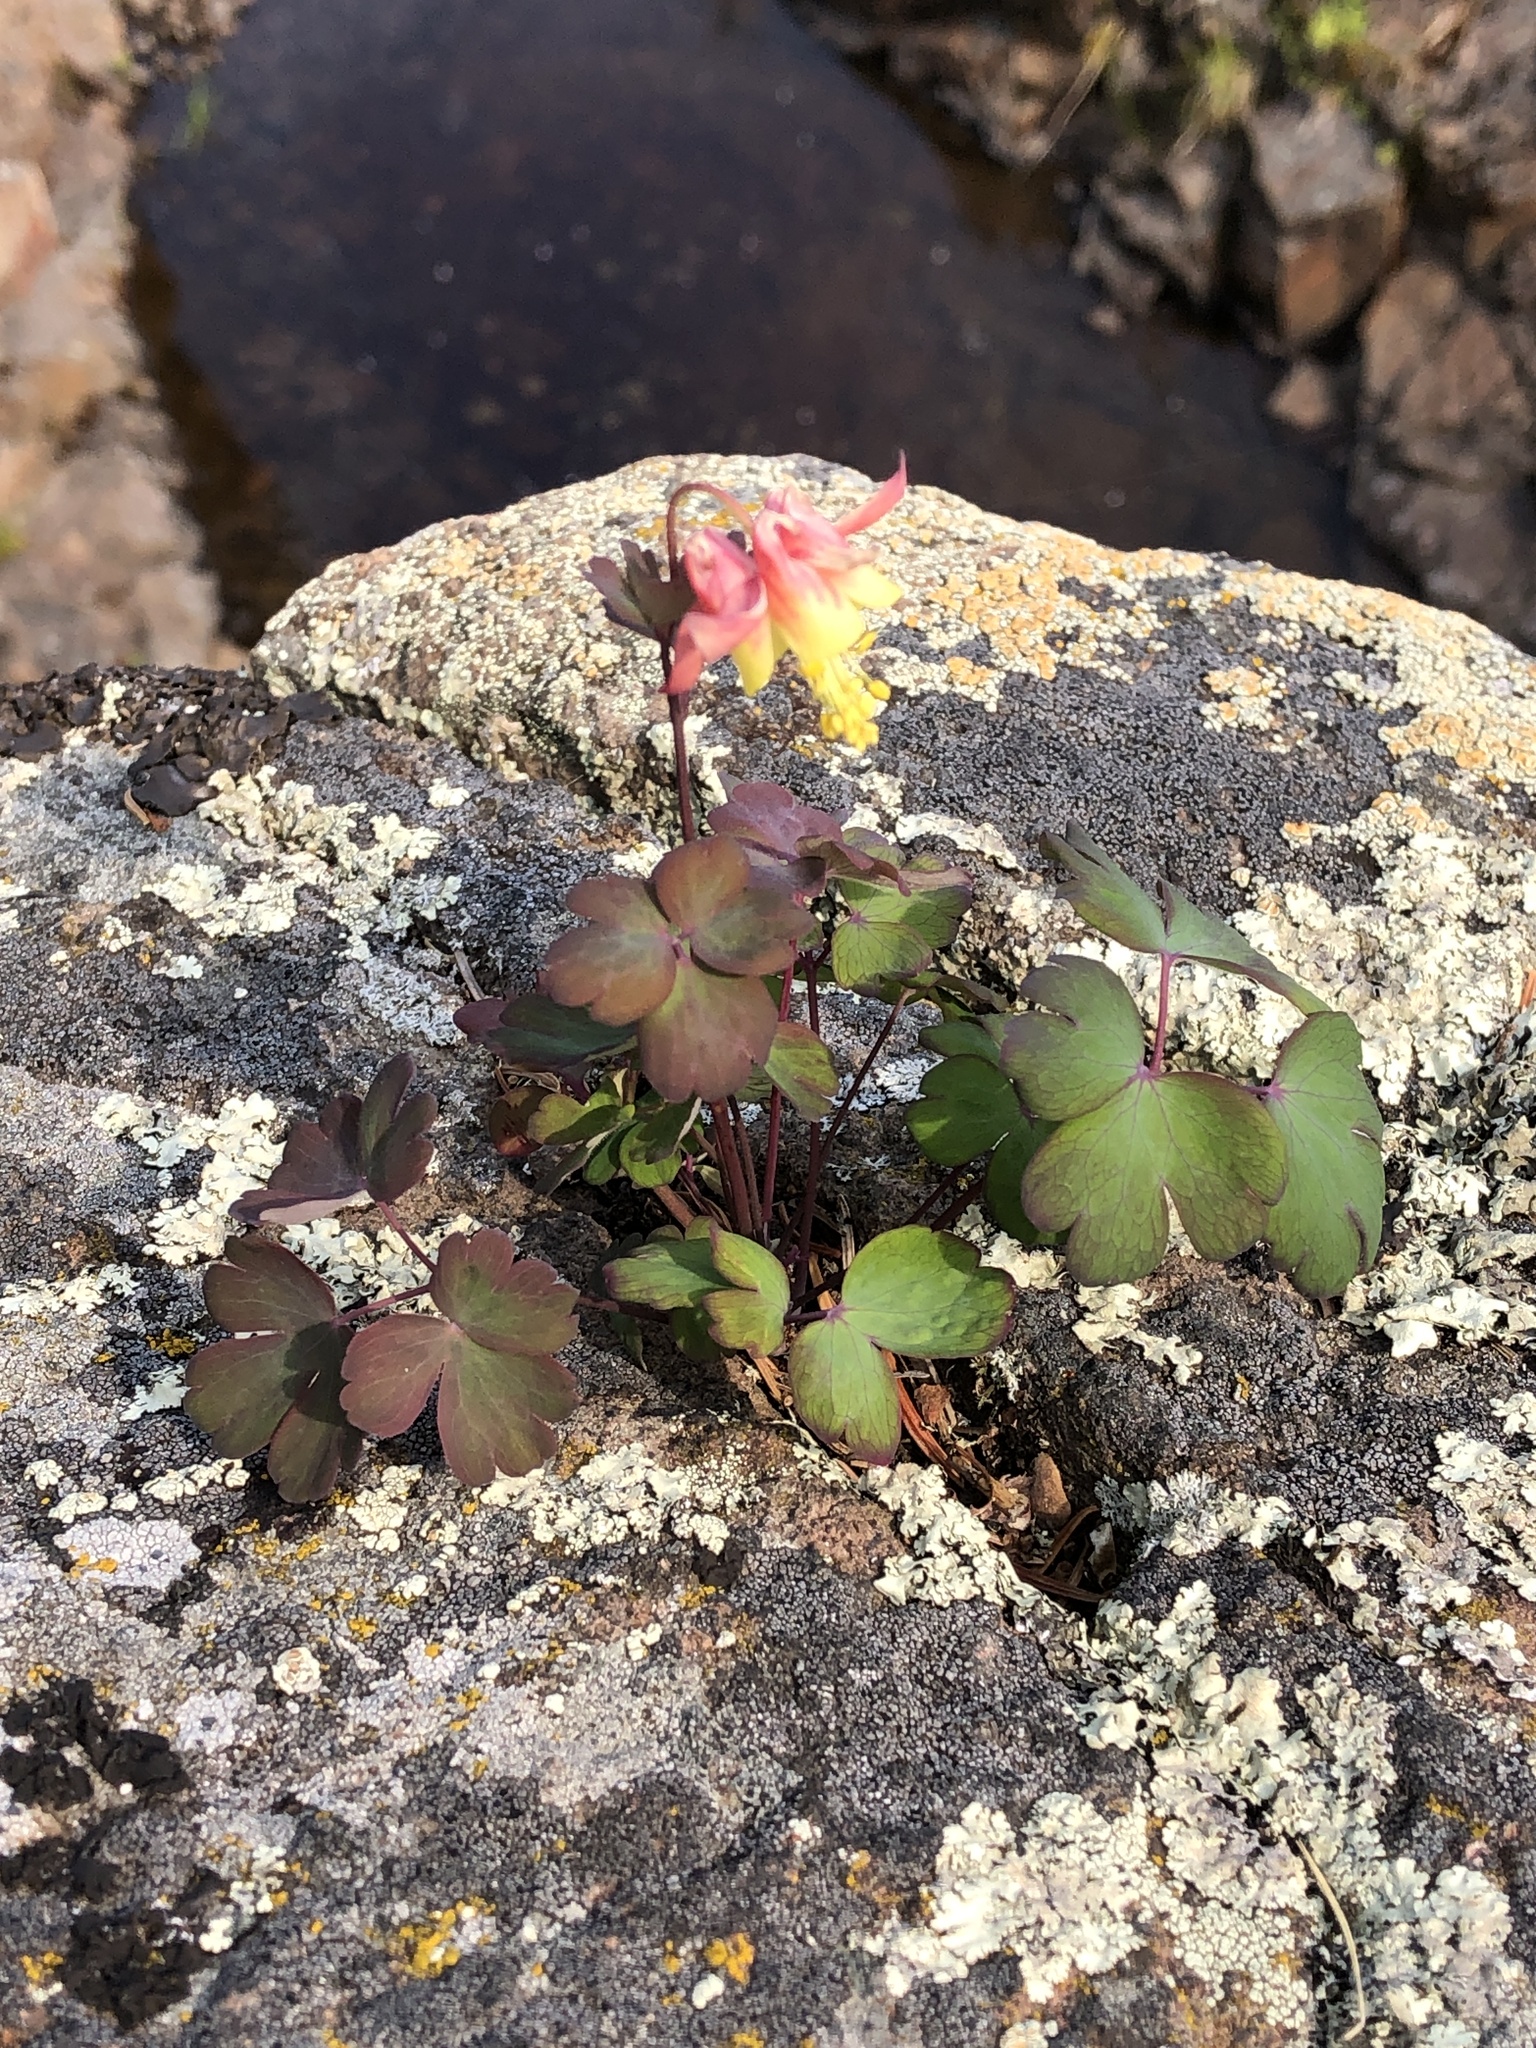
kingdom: Plantae
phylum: Tracheophyta
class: Magnoliopsida
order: Ranunculales
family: Ranunculaceae
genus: Aquilegia
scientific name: Aquilegia canadensis
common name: American columbine
